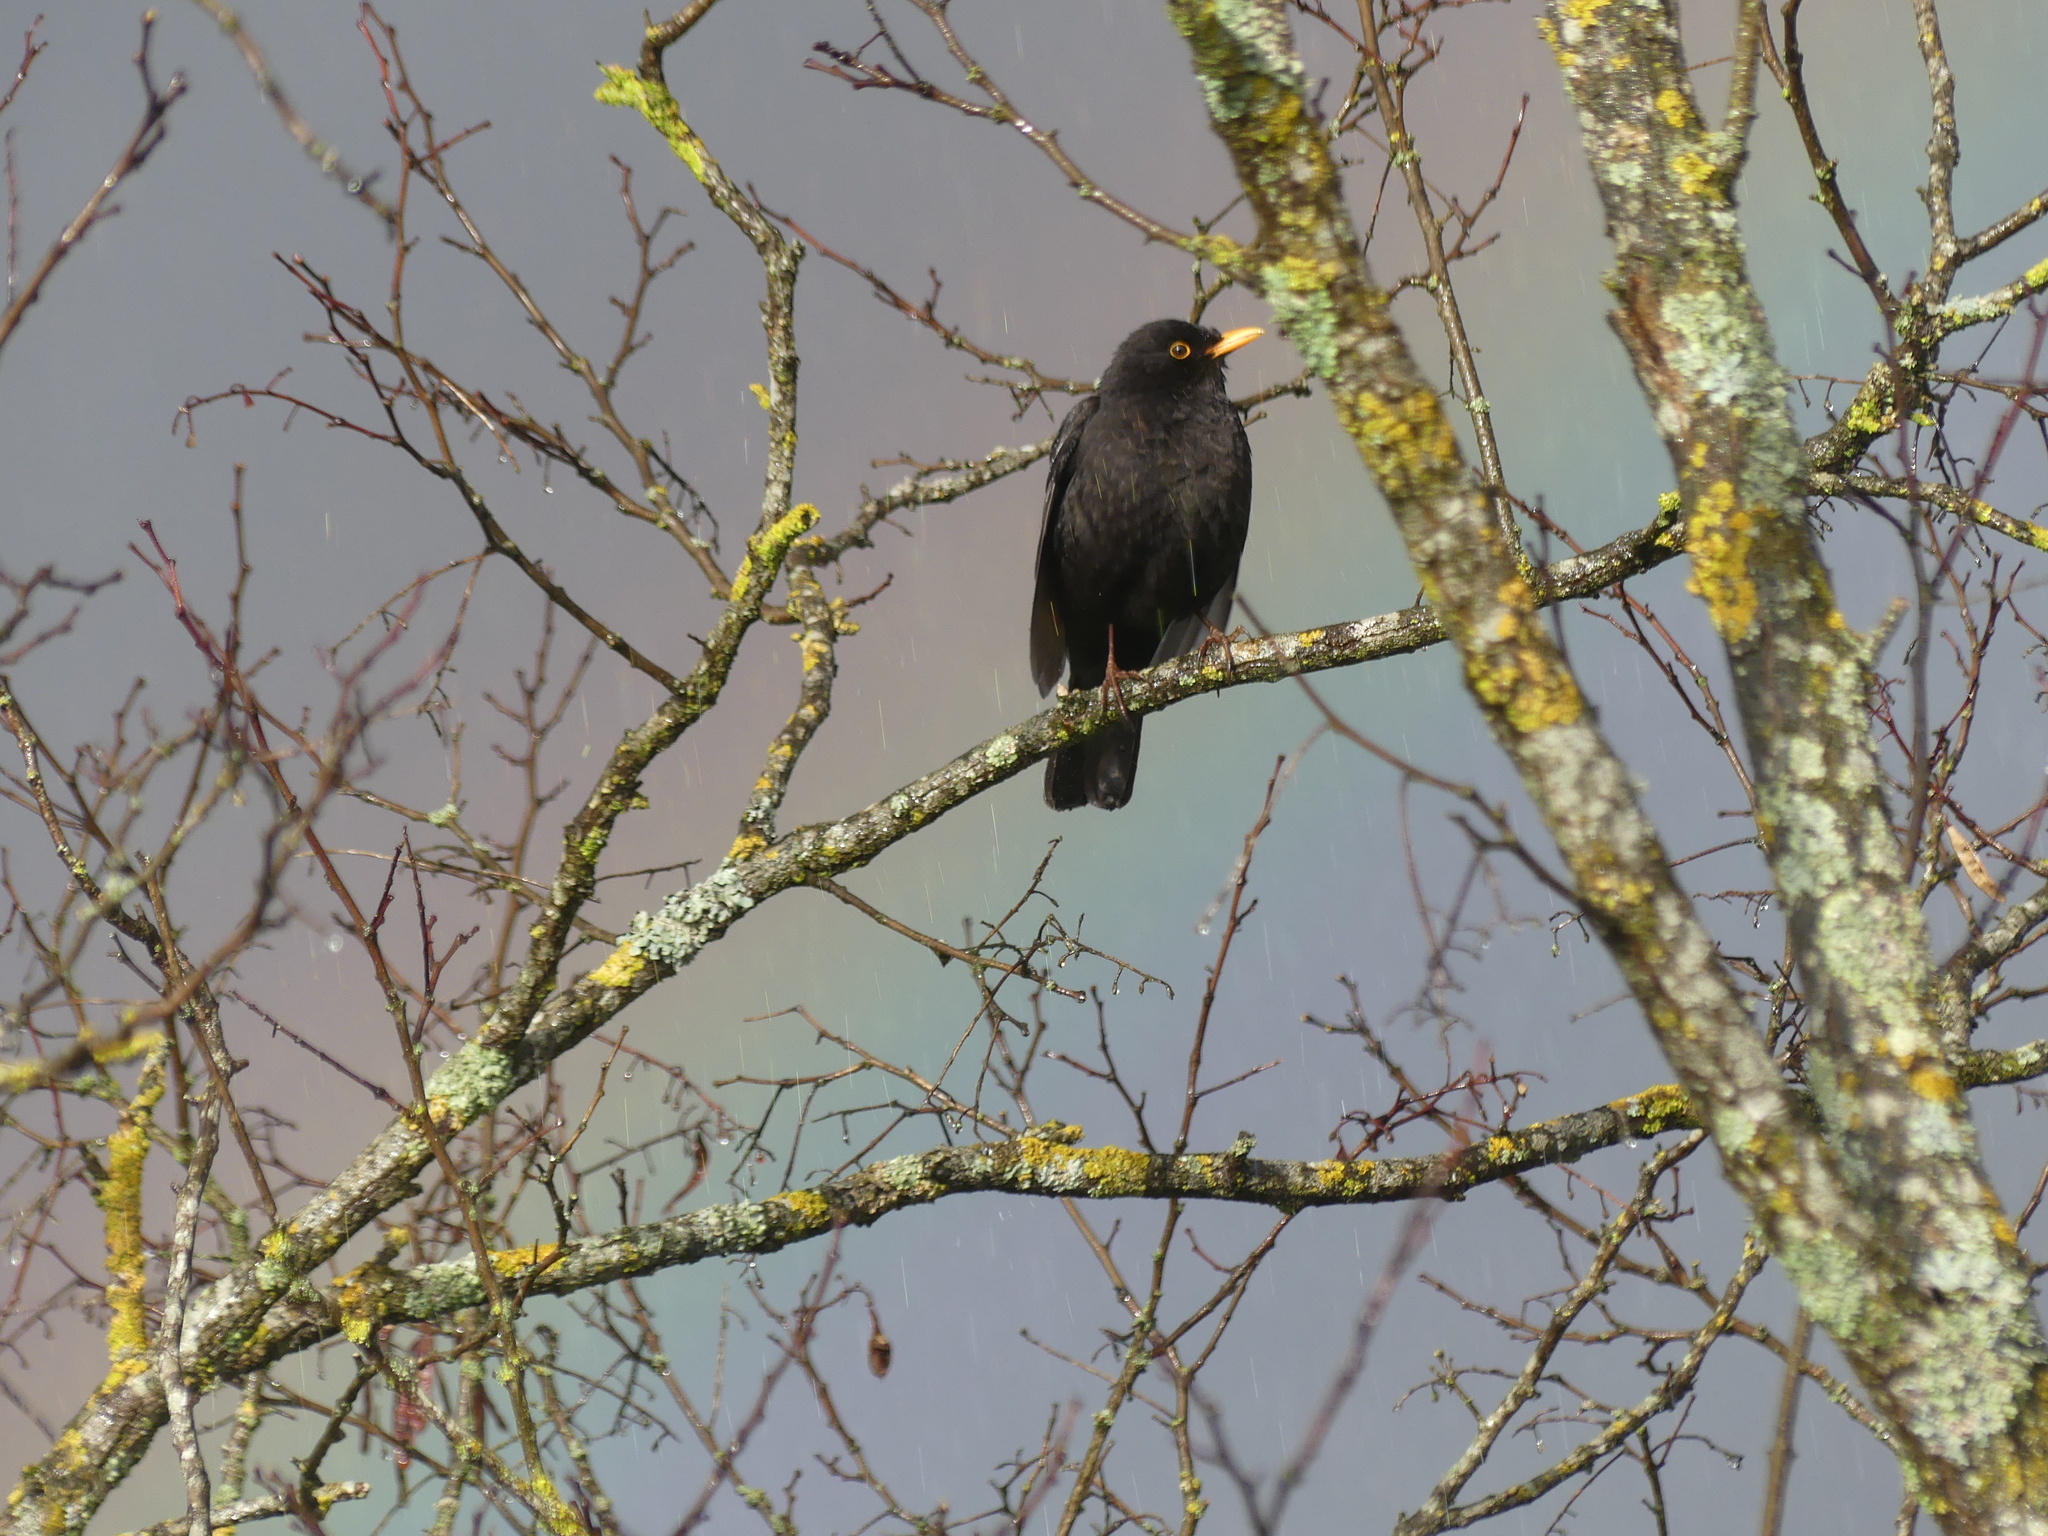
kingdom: Animalia
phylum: Chordata
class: Aves
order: Passeriformes
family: Turdidae
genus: Turdus
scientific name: Turdus merula
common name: Common blackbird
